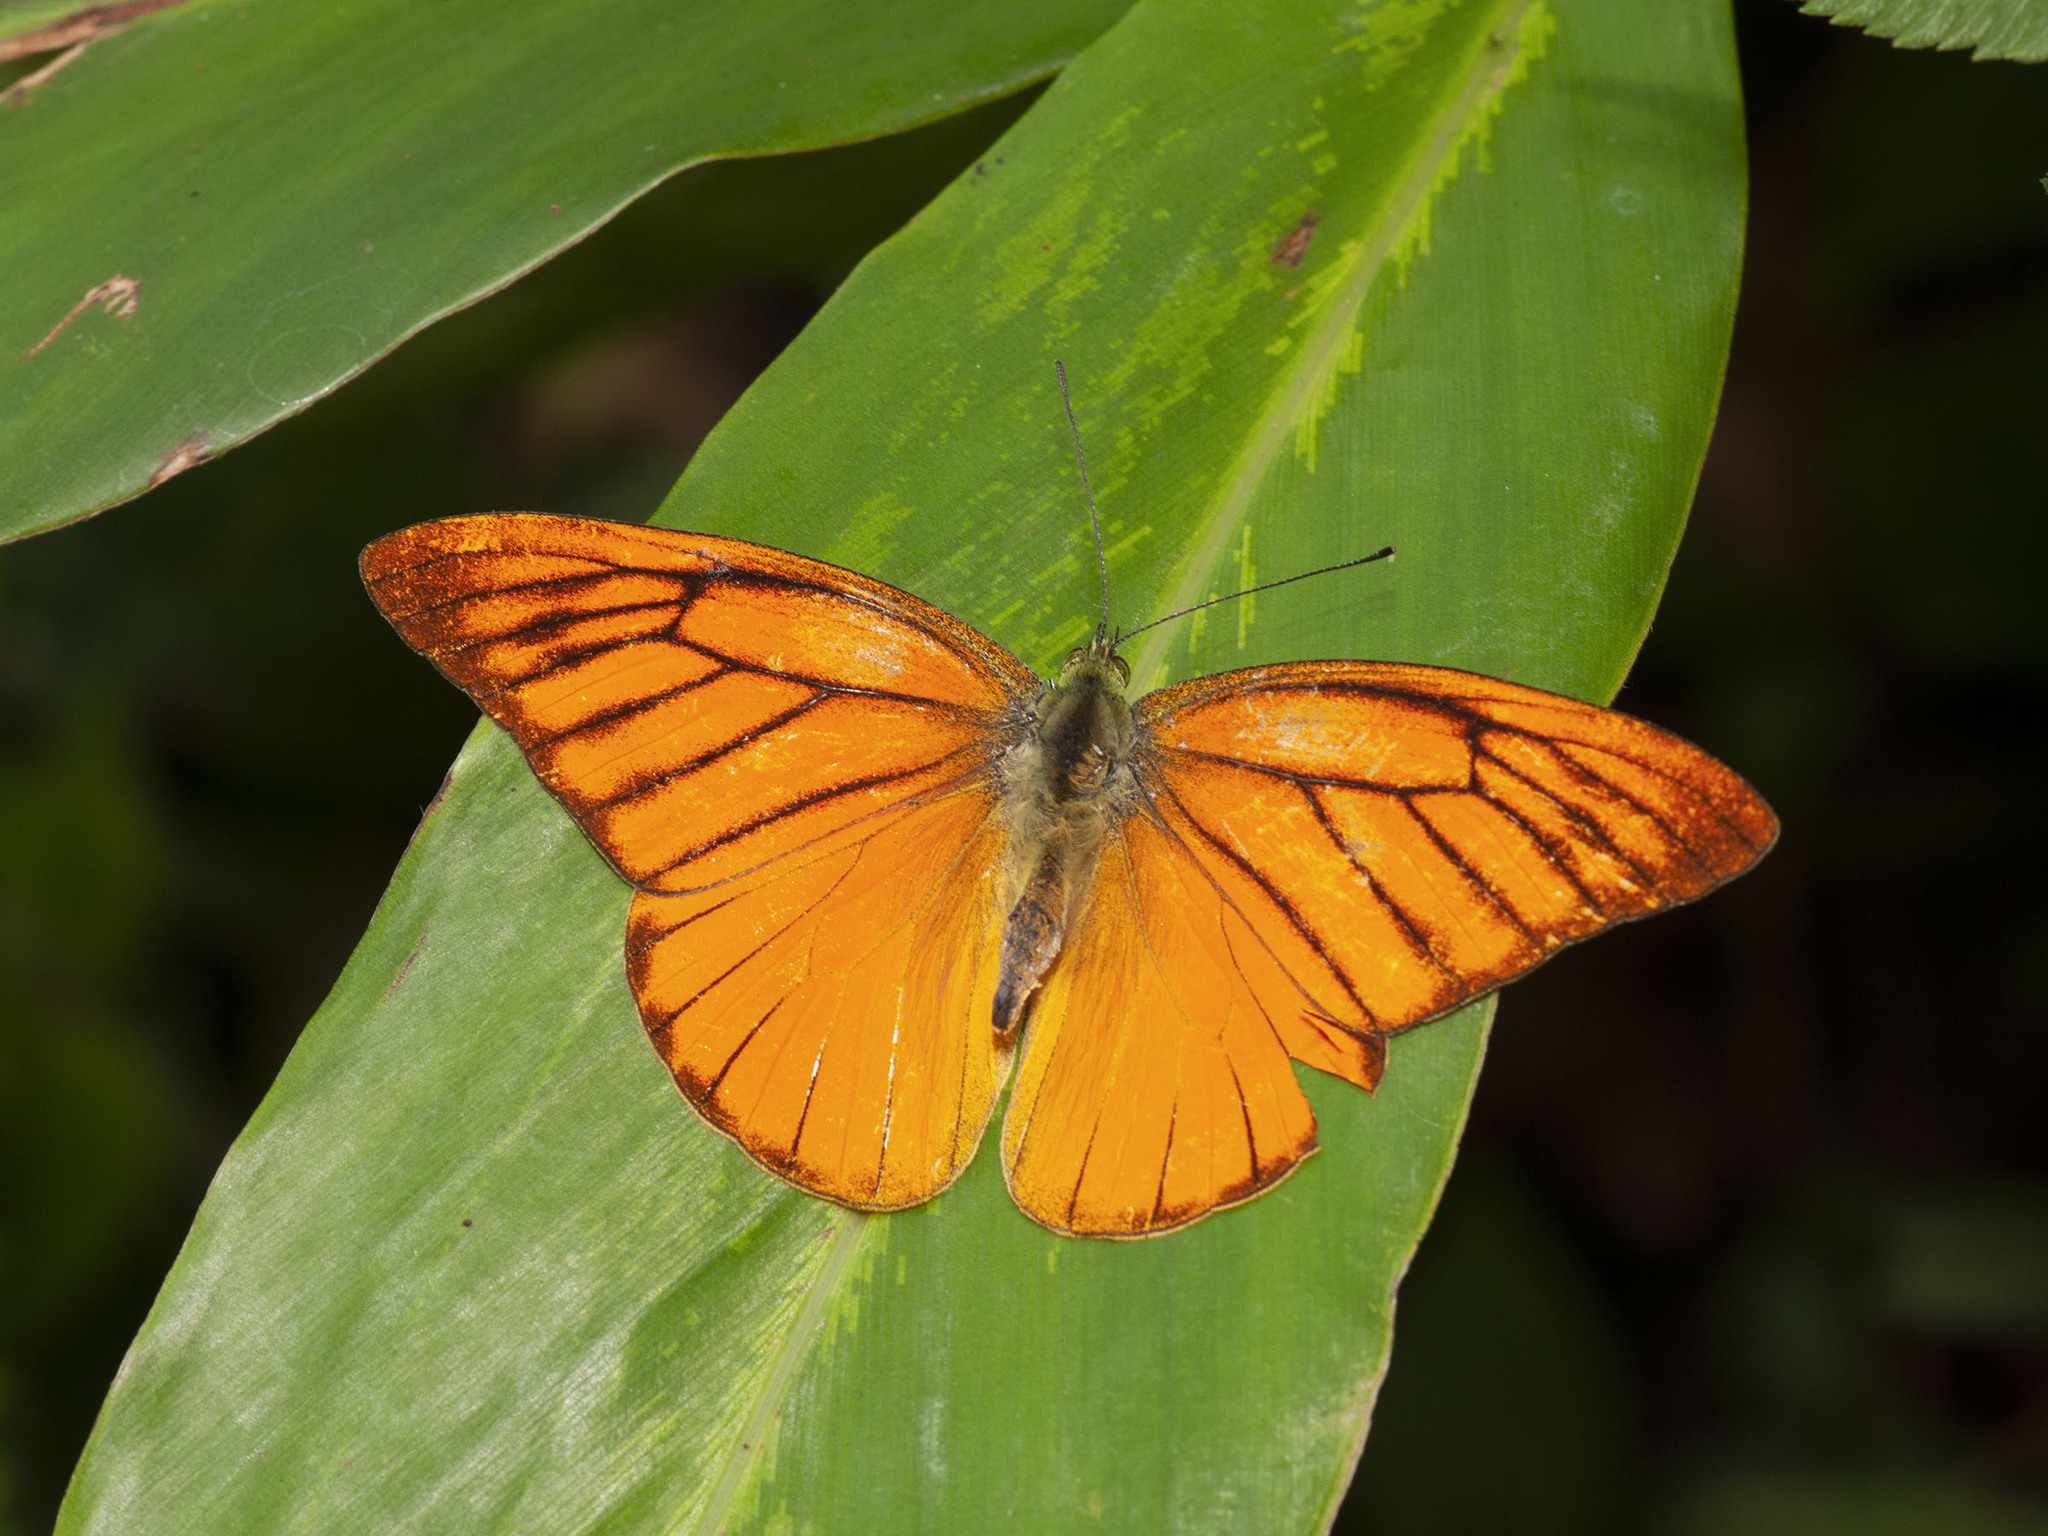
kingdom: Animalia
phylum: Arthropoda
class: Insecta
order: Lepidoptera
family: Pieridae
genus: Appias
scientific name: Appias nero
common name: Orange albatross
